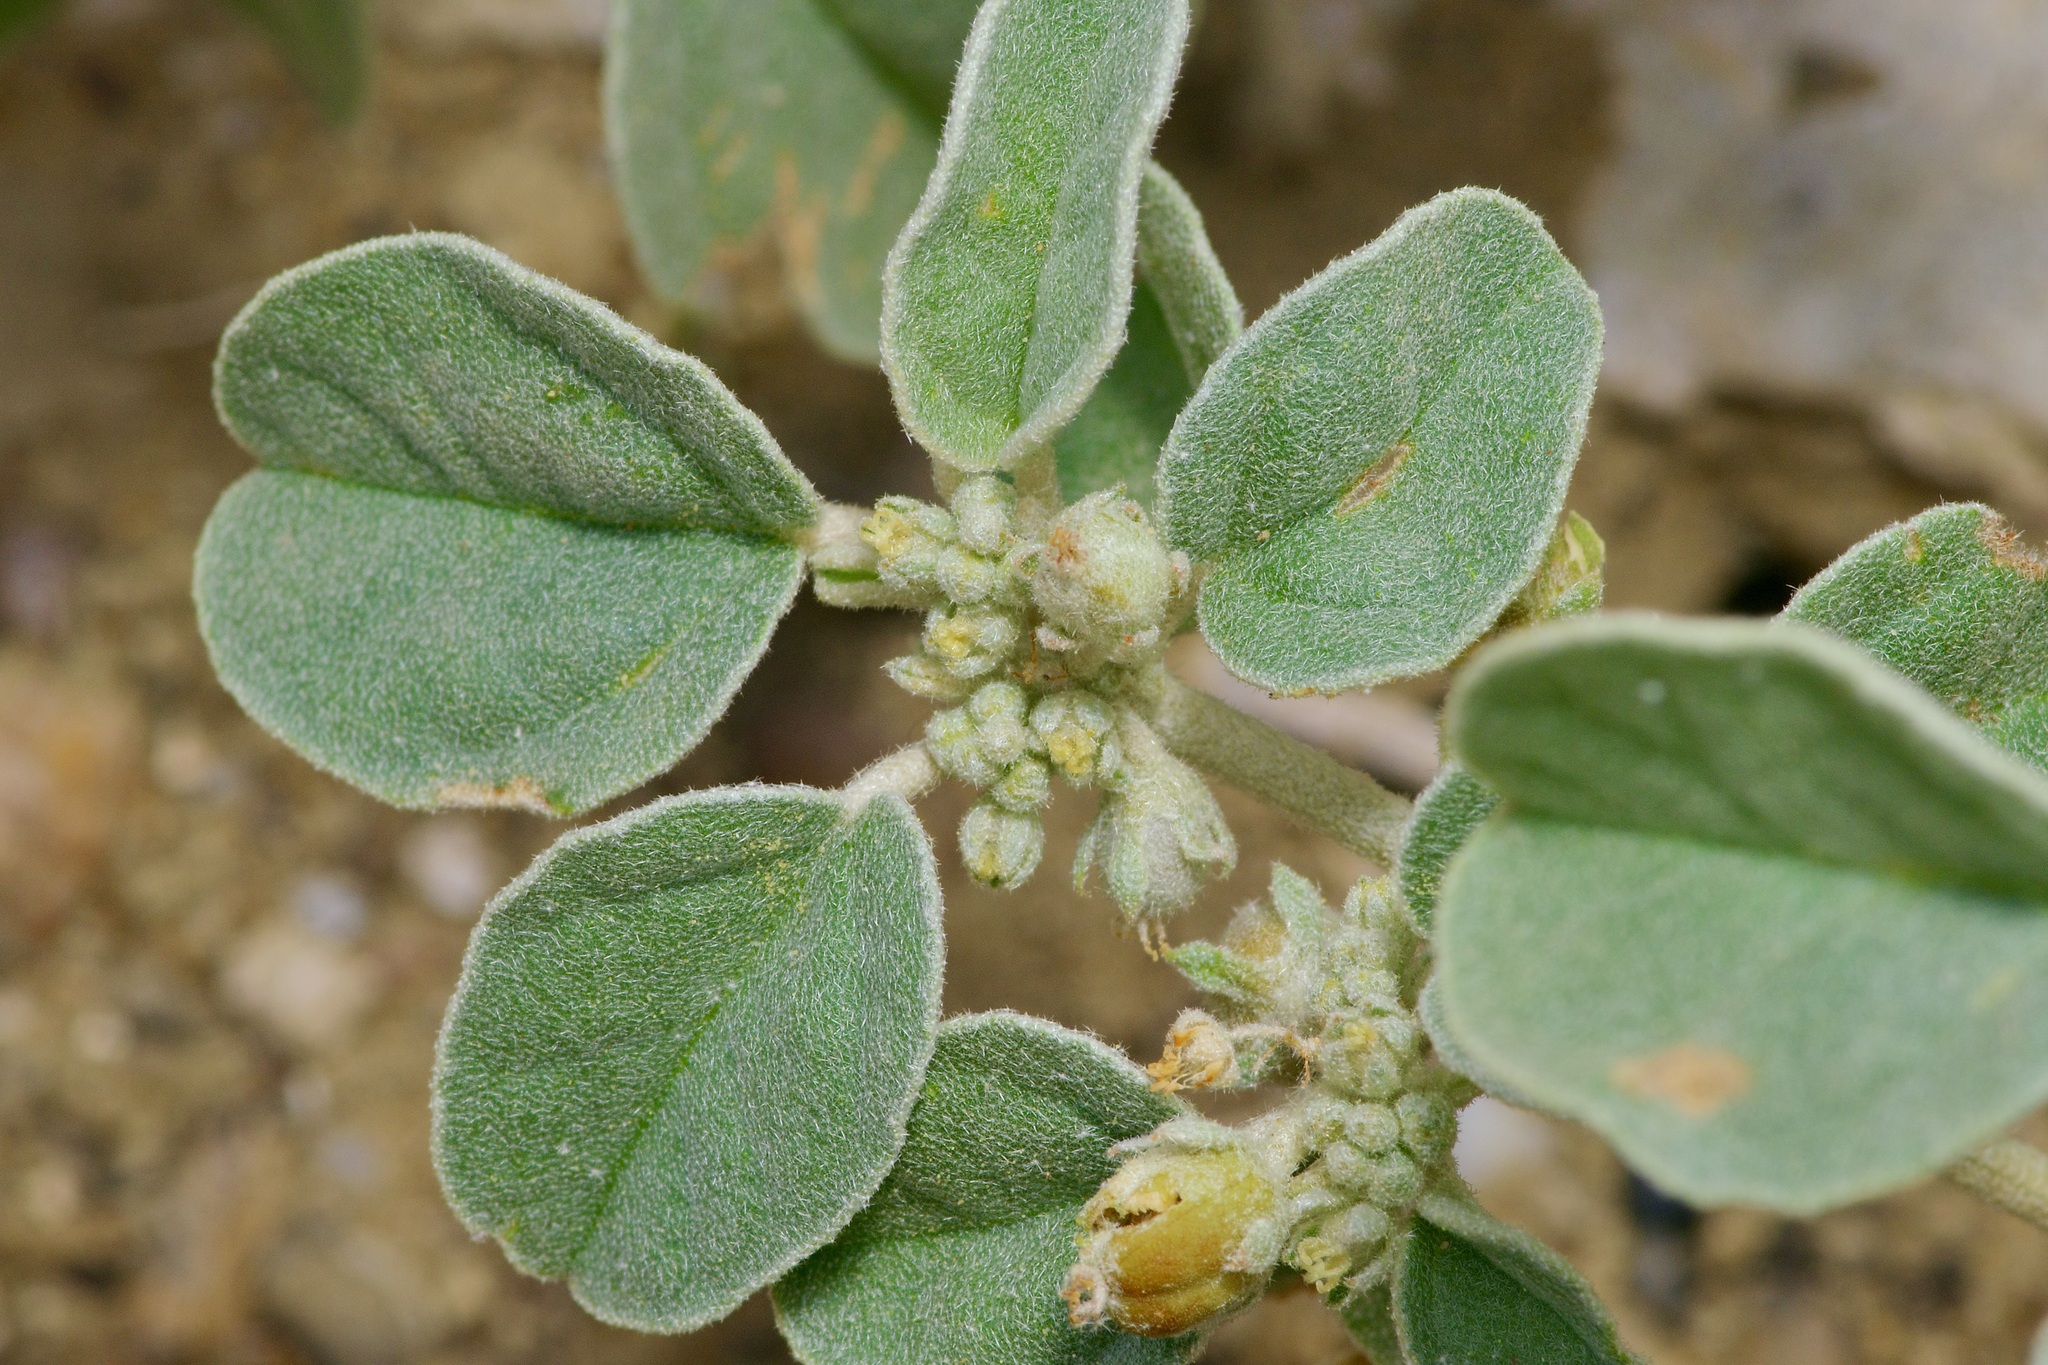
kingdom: Plantae
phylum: Tracheophyta
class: Magnoliopsida
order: Malpighiales
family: Euphorbiaceae
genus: Croton
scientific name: Croton lindheimerianus
